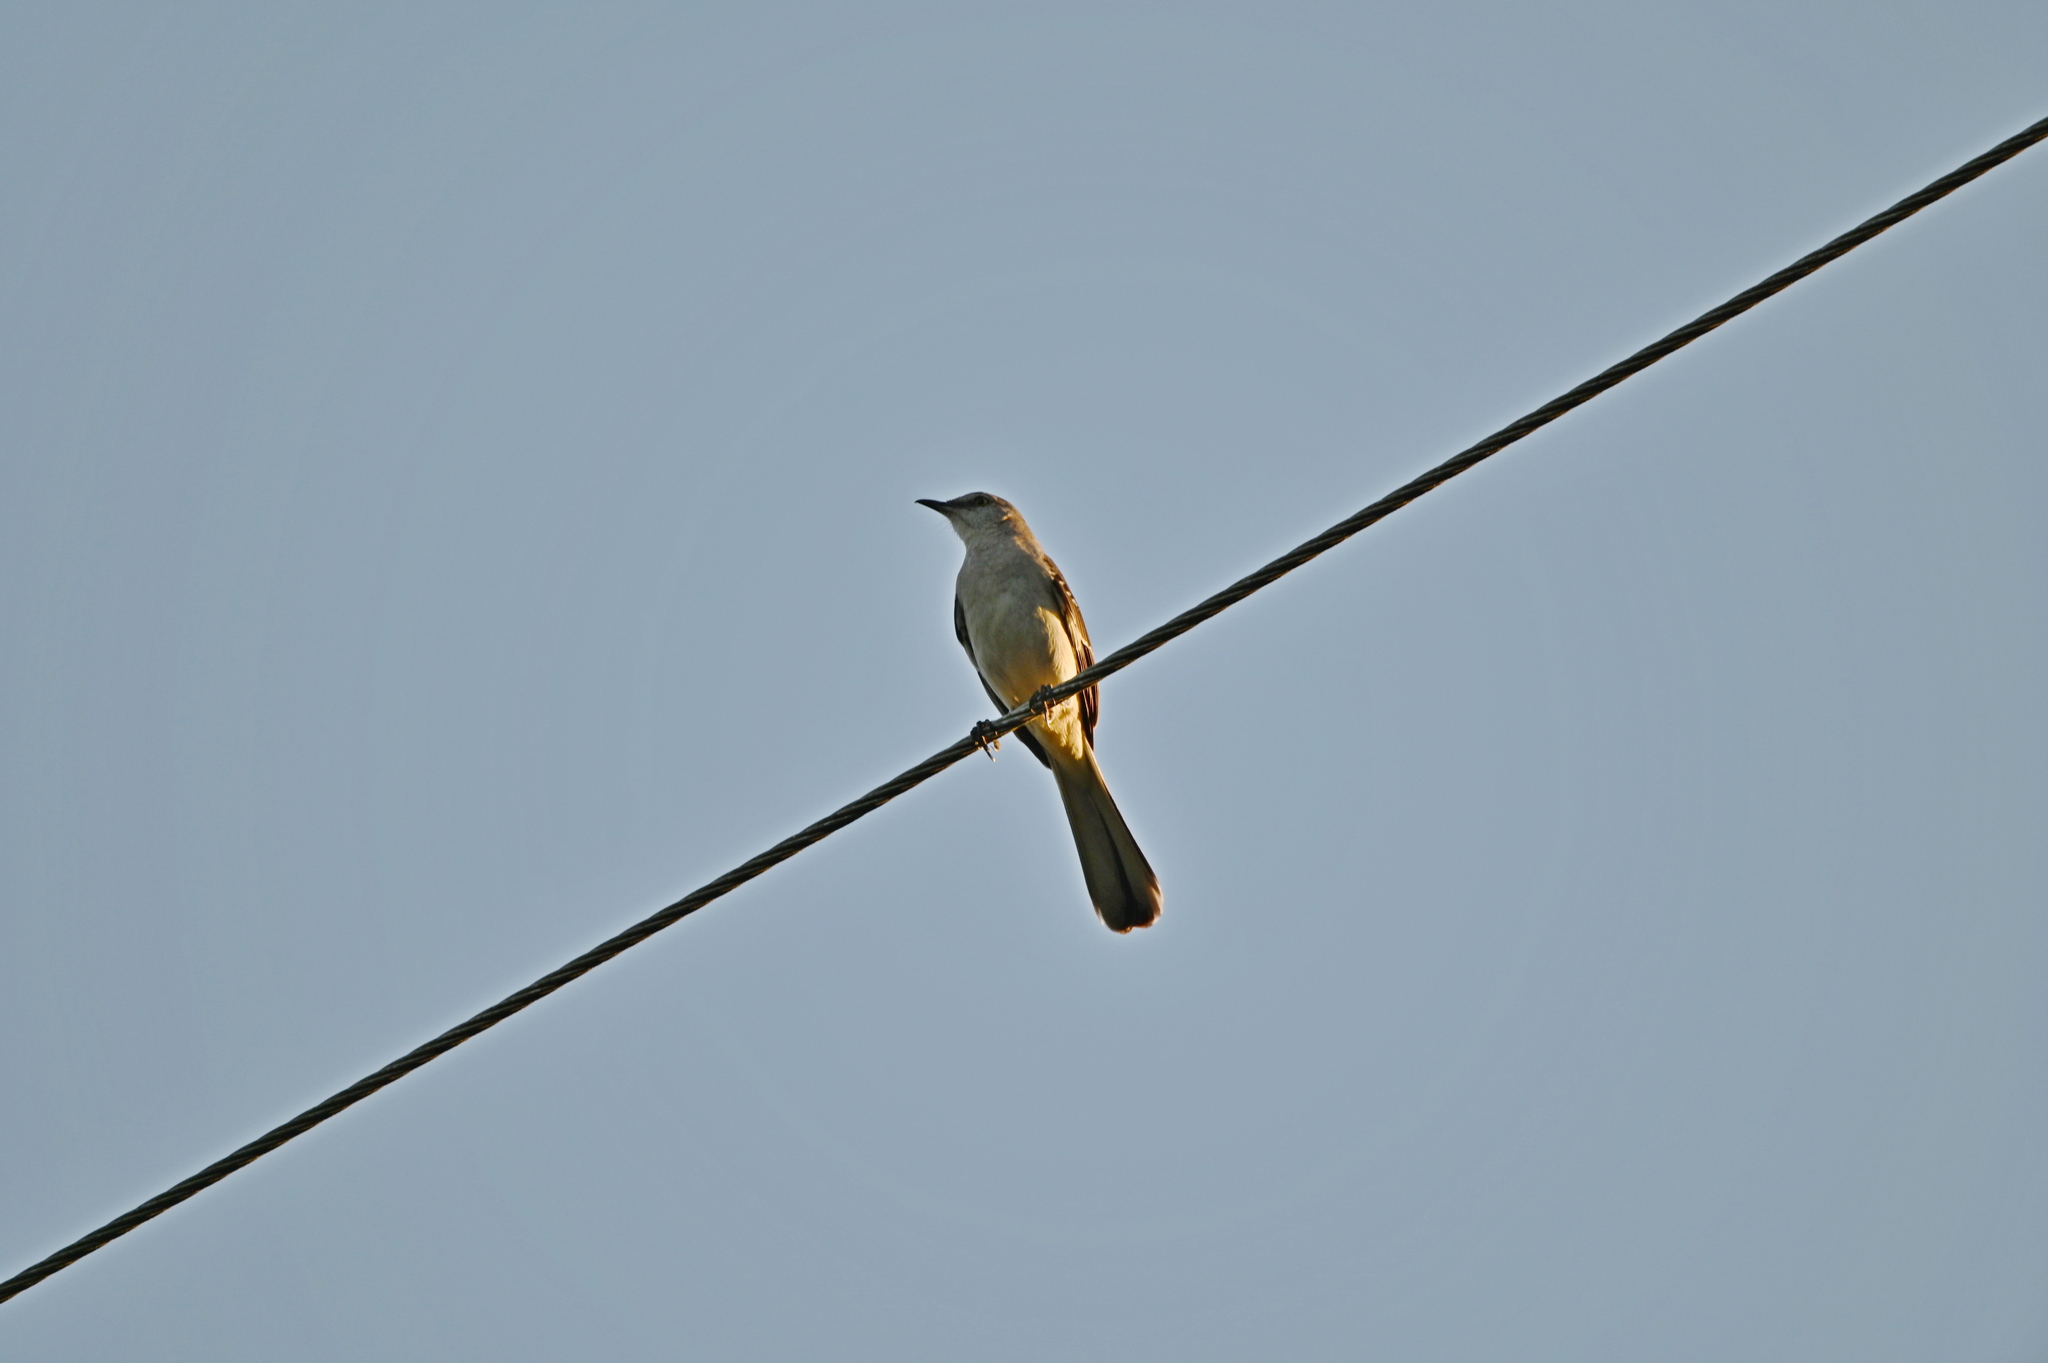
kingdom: Animalia
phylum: Chordata
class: Aves
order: Passeriformes
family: Mimidae
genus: Mimus
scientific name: Mimus polyglottos
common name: Northern mockingbird
